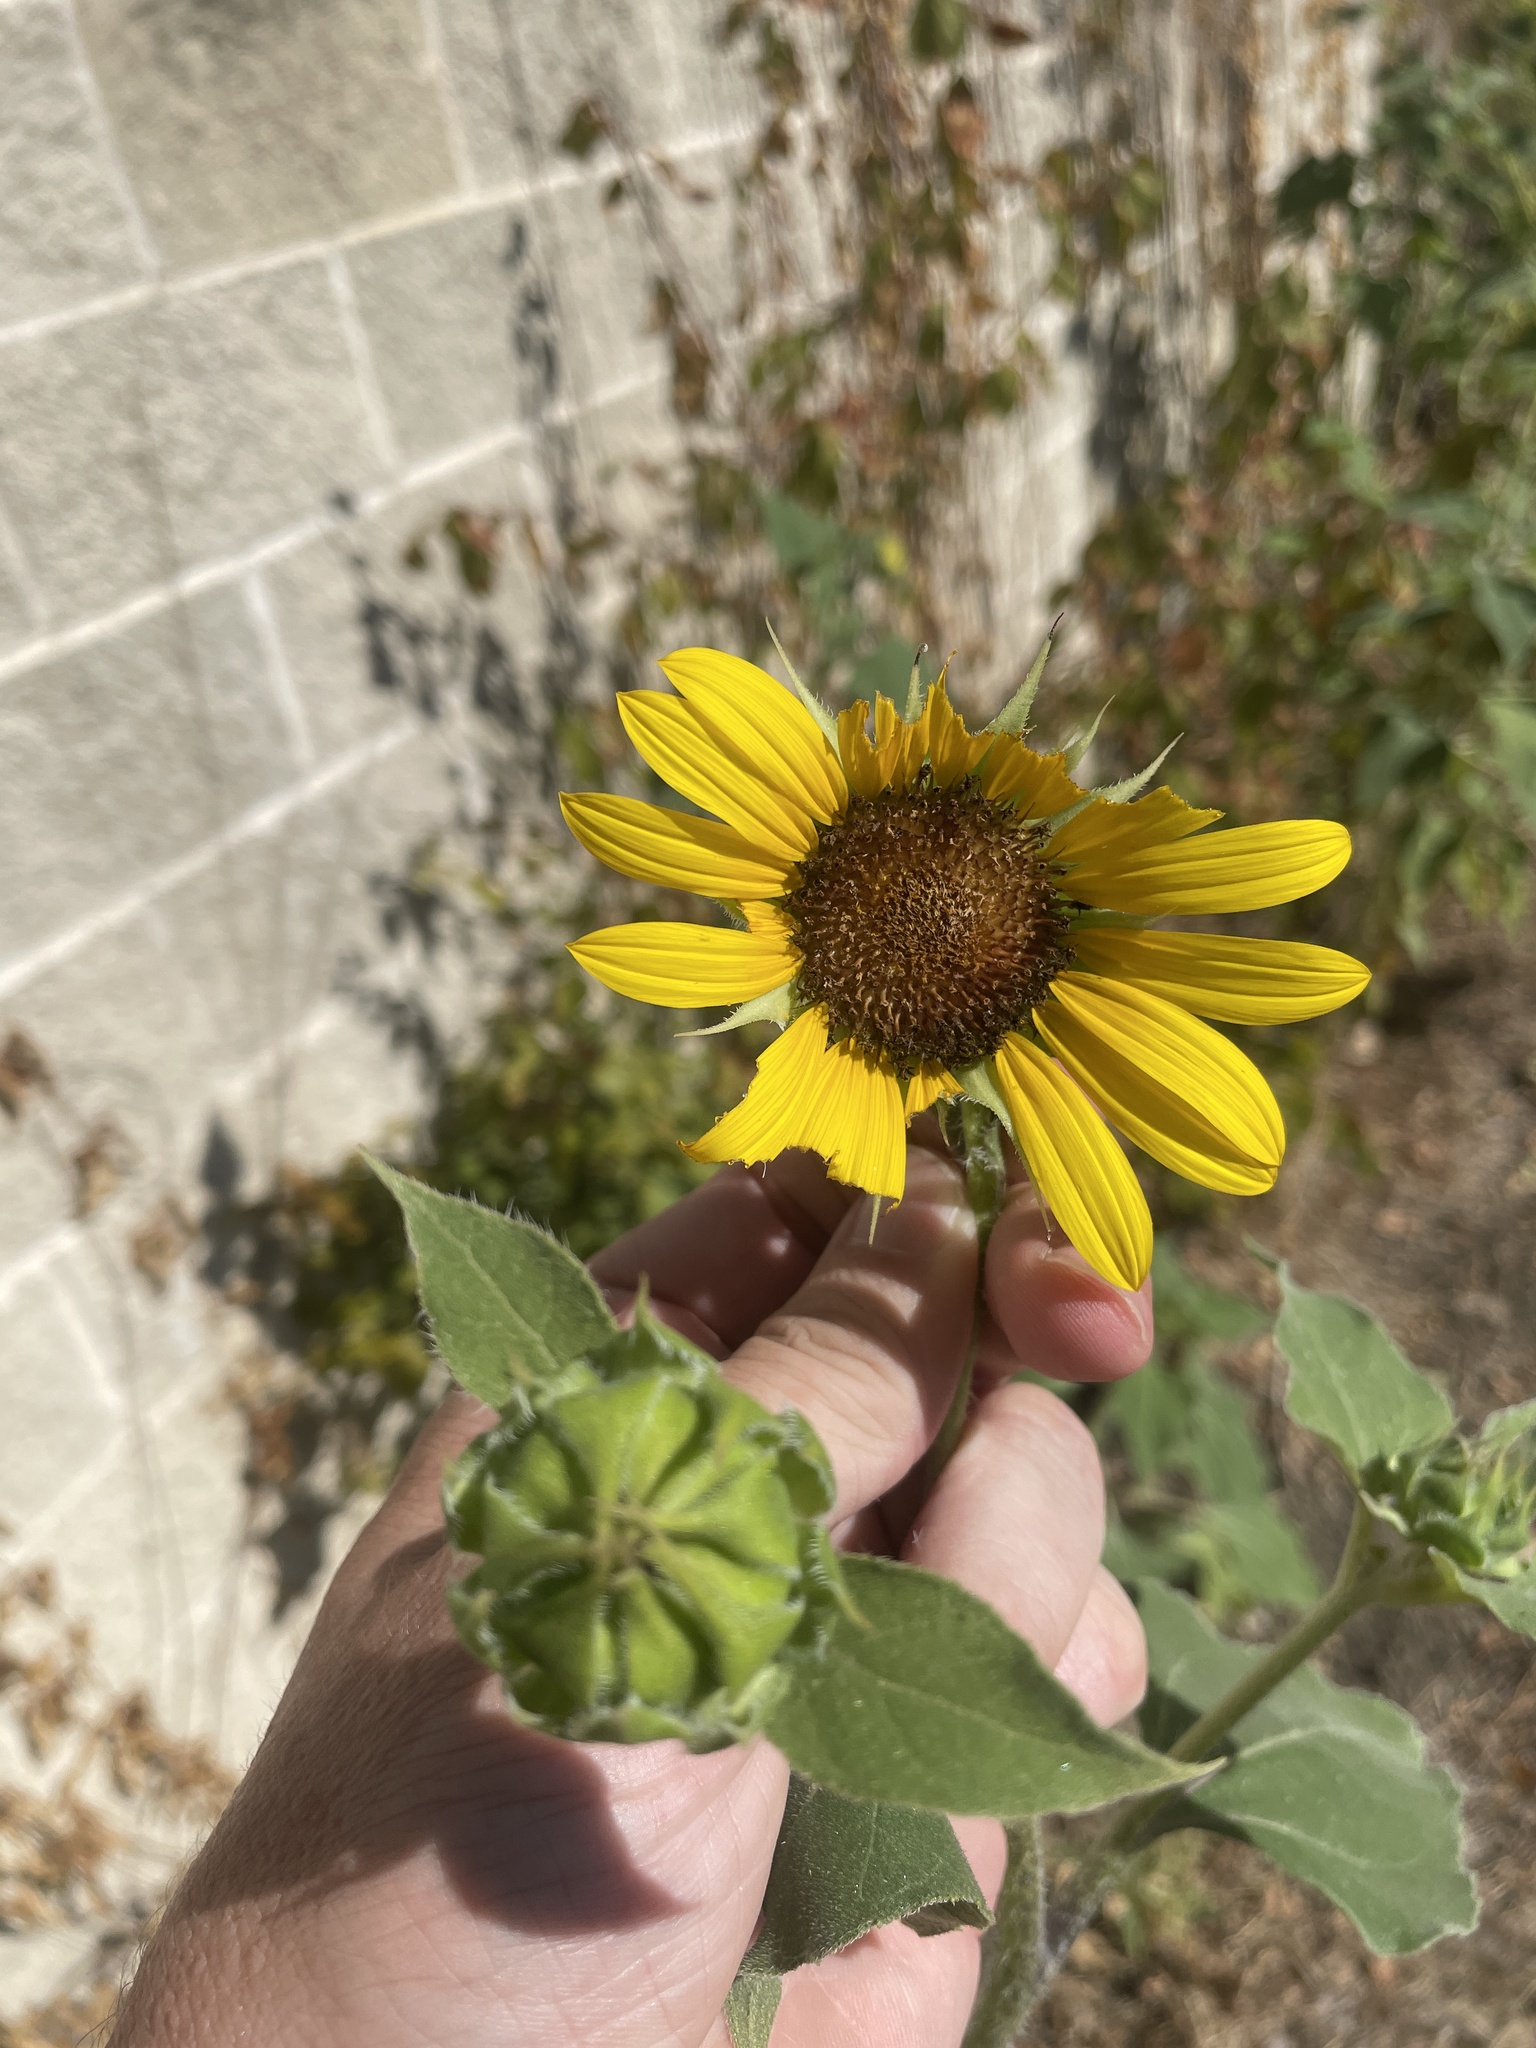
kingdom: Plantae
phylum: Tracheophyta
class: Magnoliopsida
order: Asterales
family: Asteraceae
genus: Helianthus
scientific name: Helianthus annuus
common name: Sunflower
